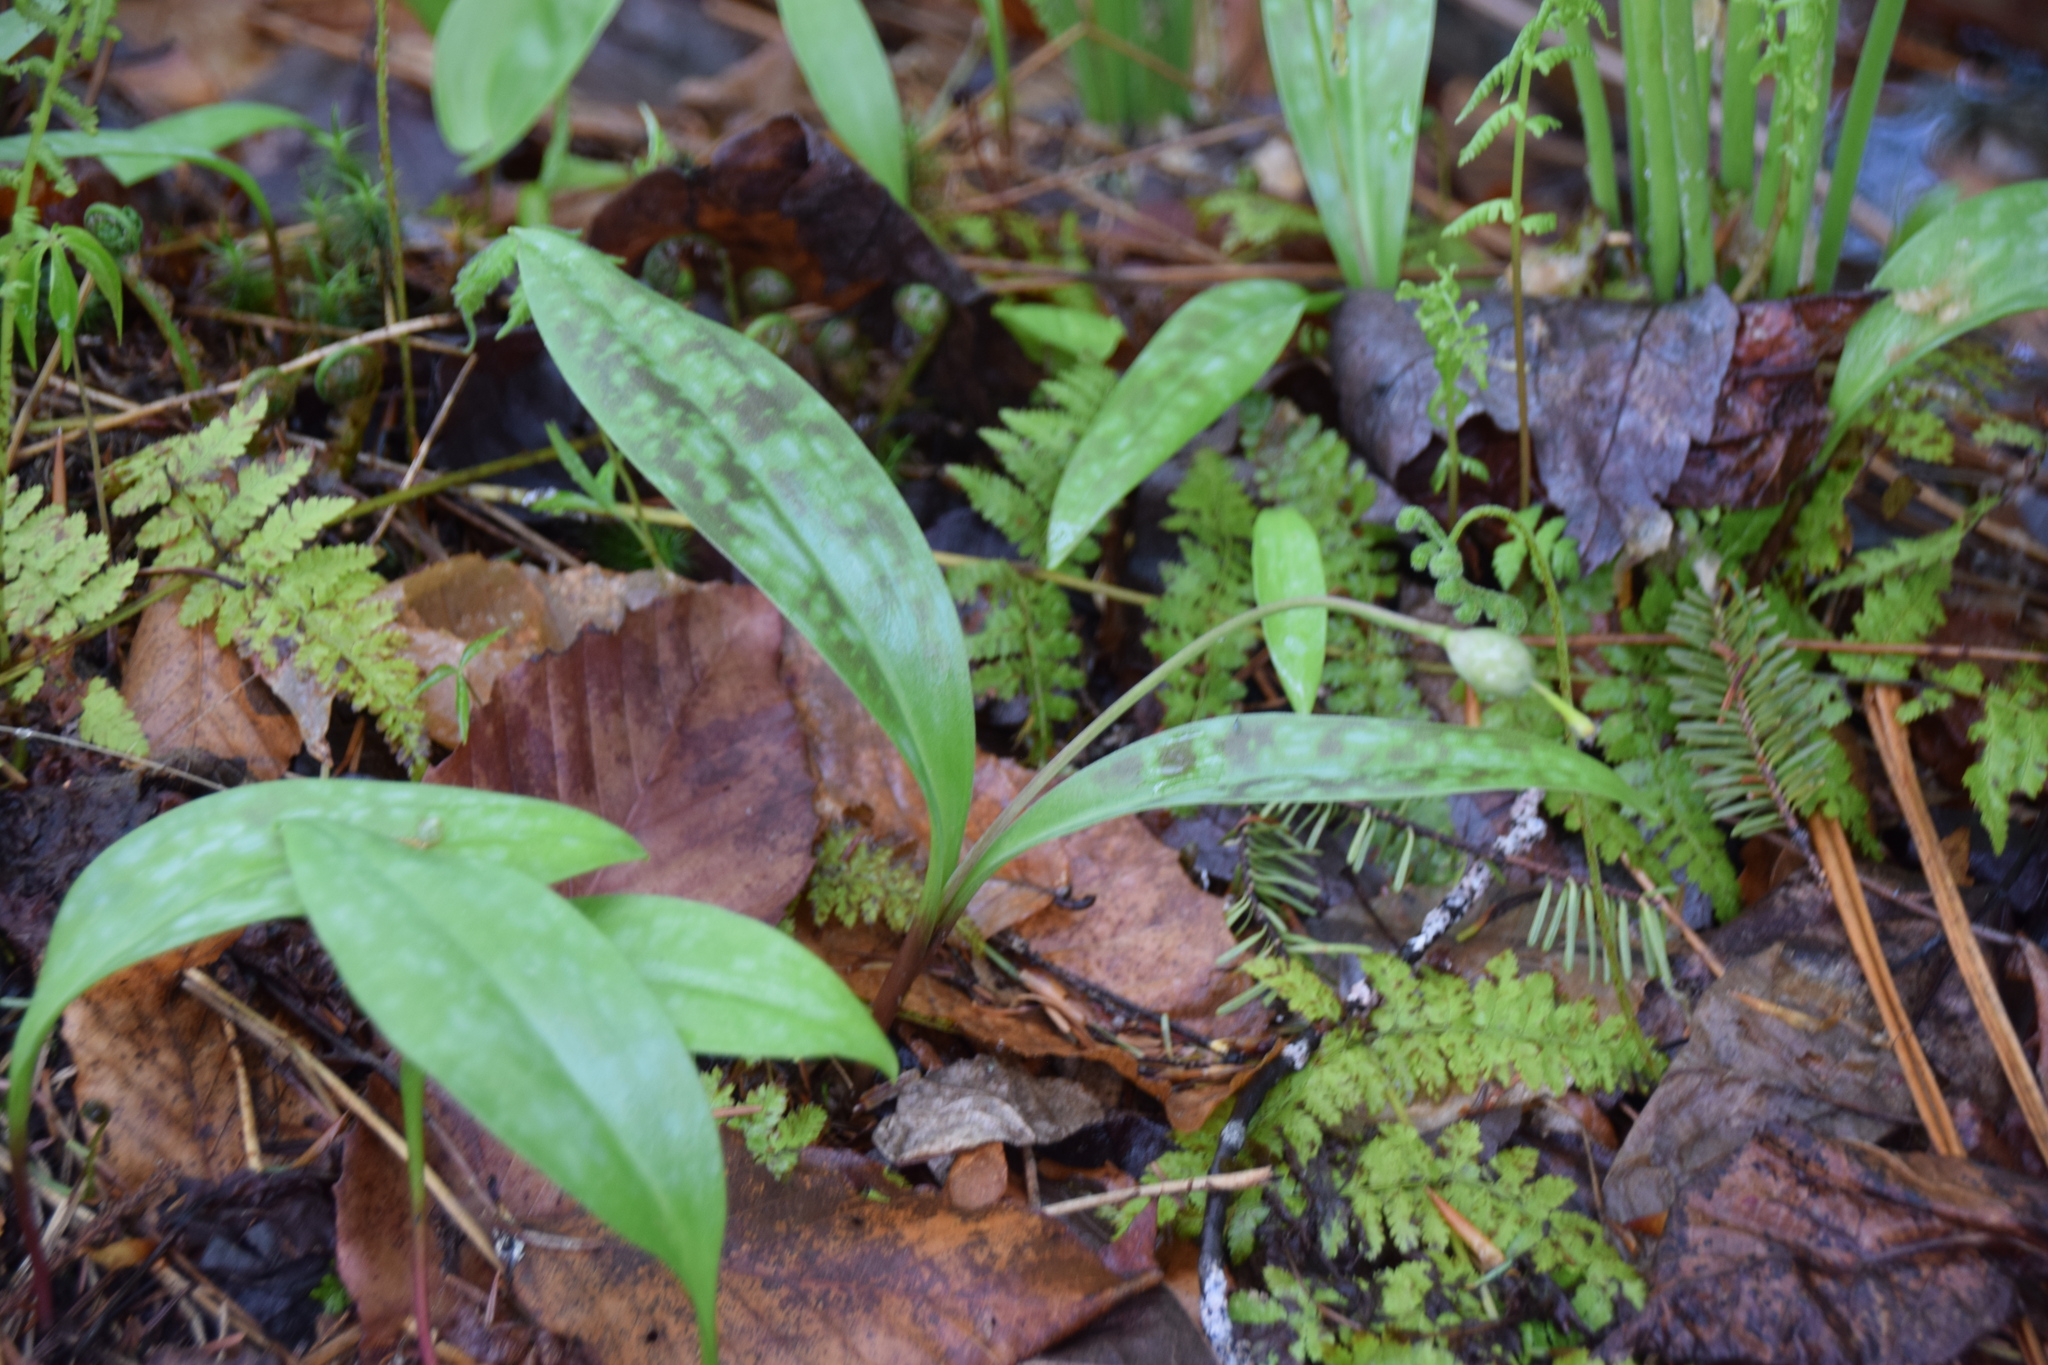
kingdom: Plantae
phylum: Tracheophyta
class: Liliopsida
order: Liliales
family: Liliaceae
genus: Erythronium
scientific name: Erythronium americanum
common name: Yellow adder's-tongue
